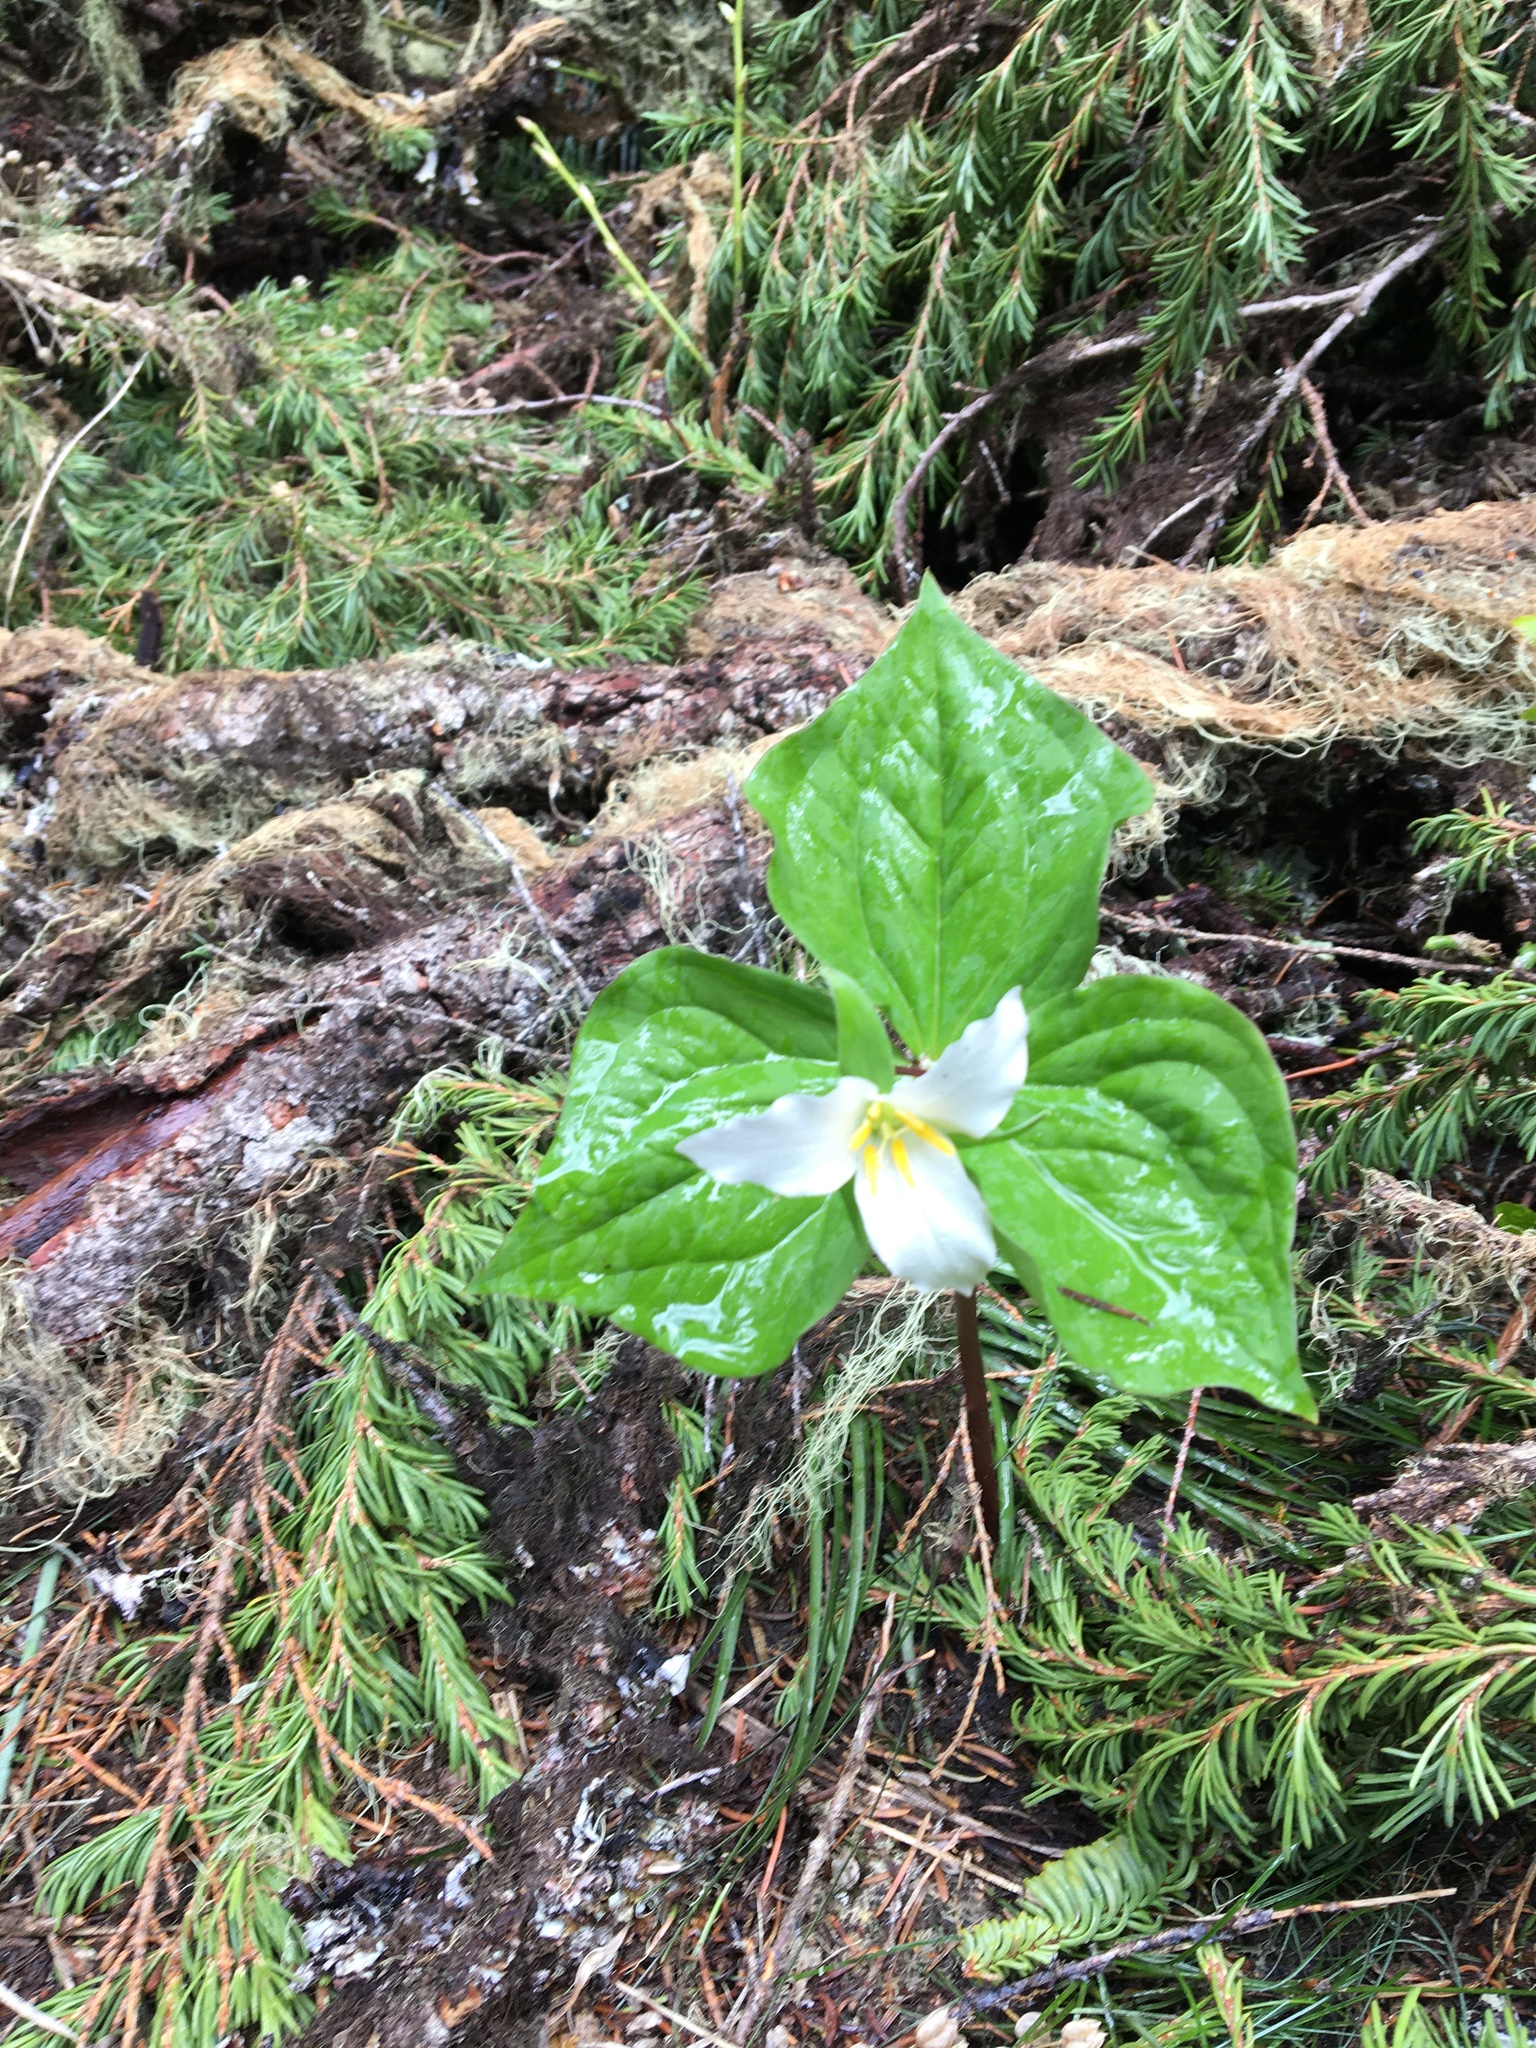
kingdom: Plantae
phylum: Tracheophyta
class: Liliopsida
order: Liliales
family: Melanthiaceae
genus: Trillium
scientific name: Trillium ovatum
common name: Pacific trillium
